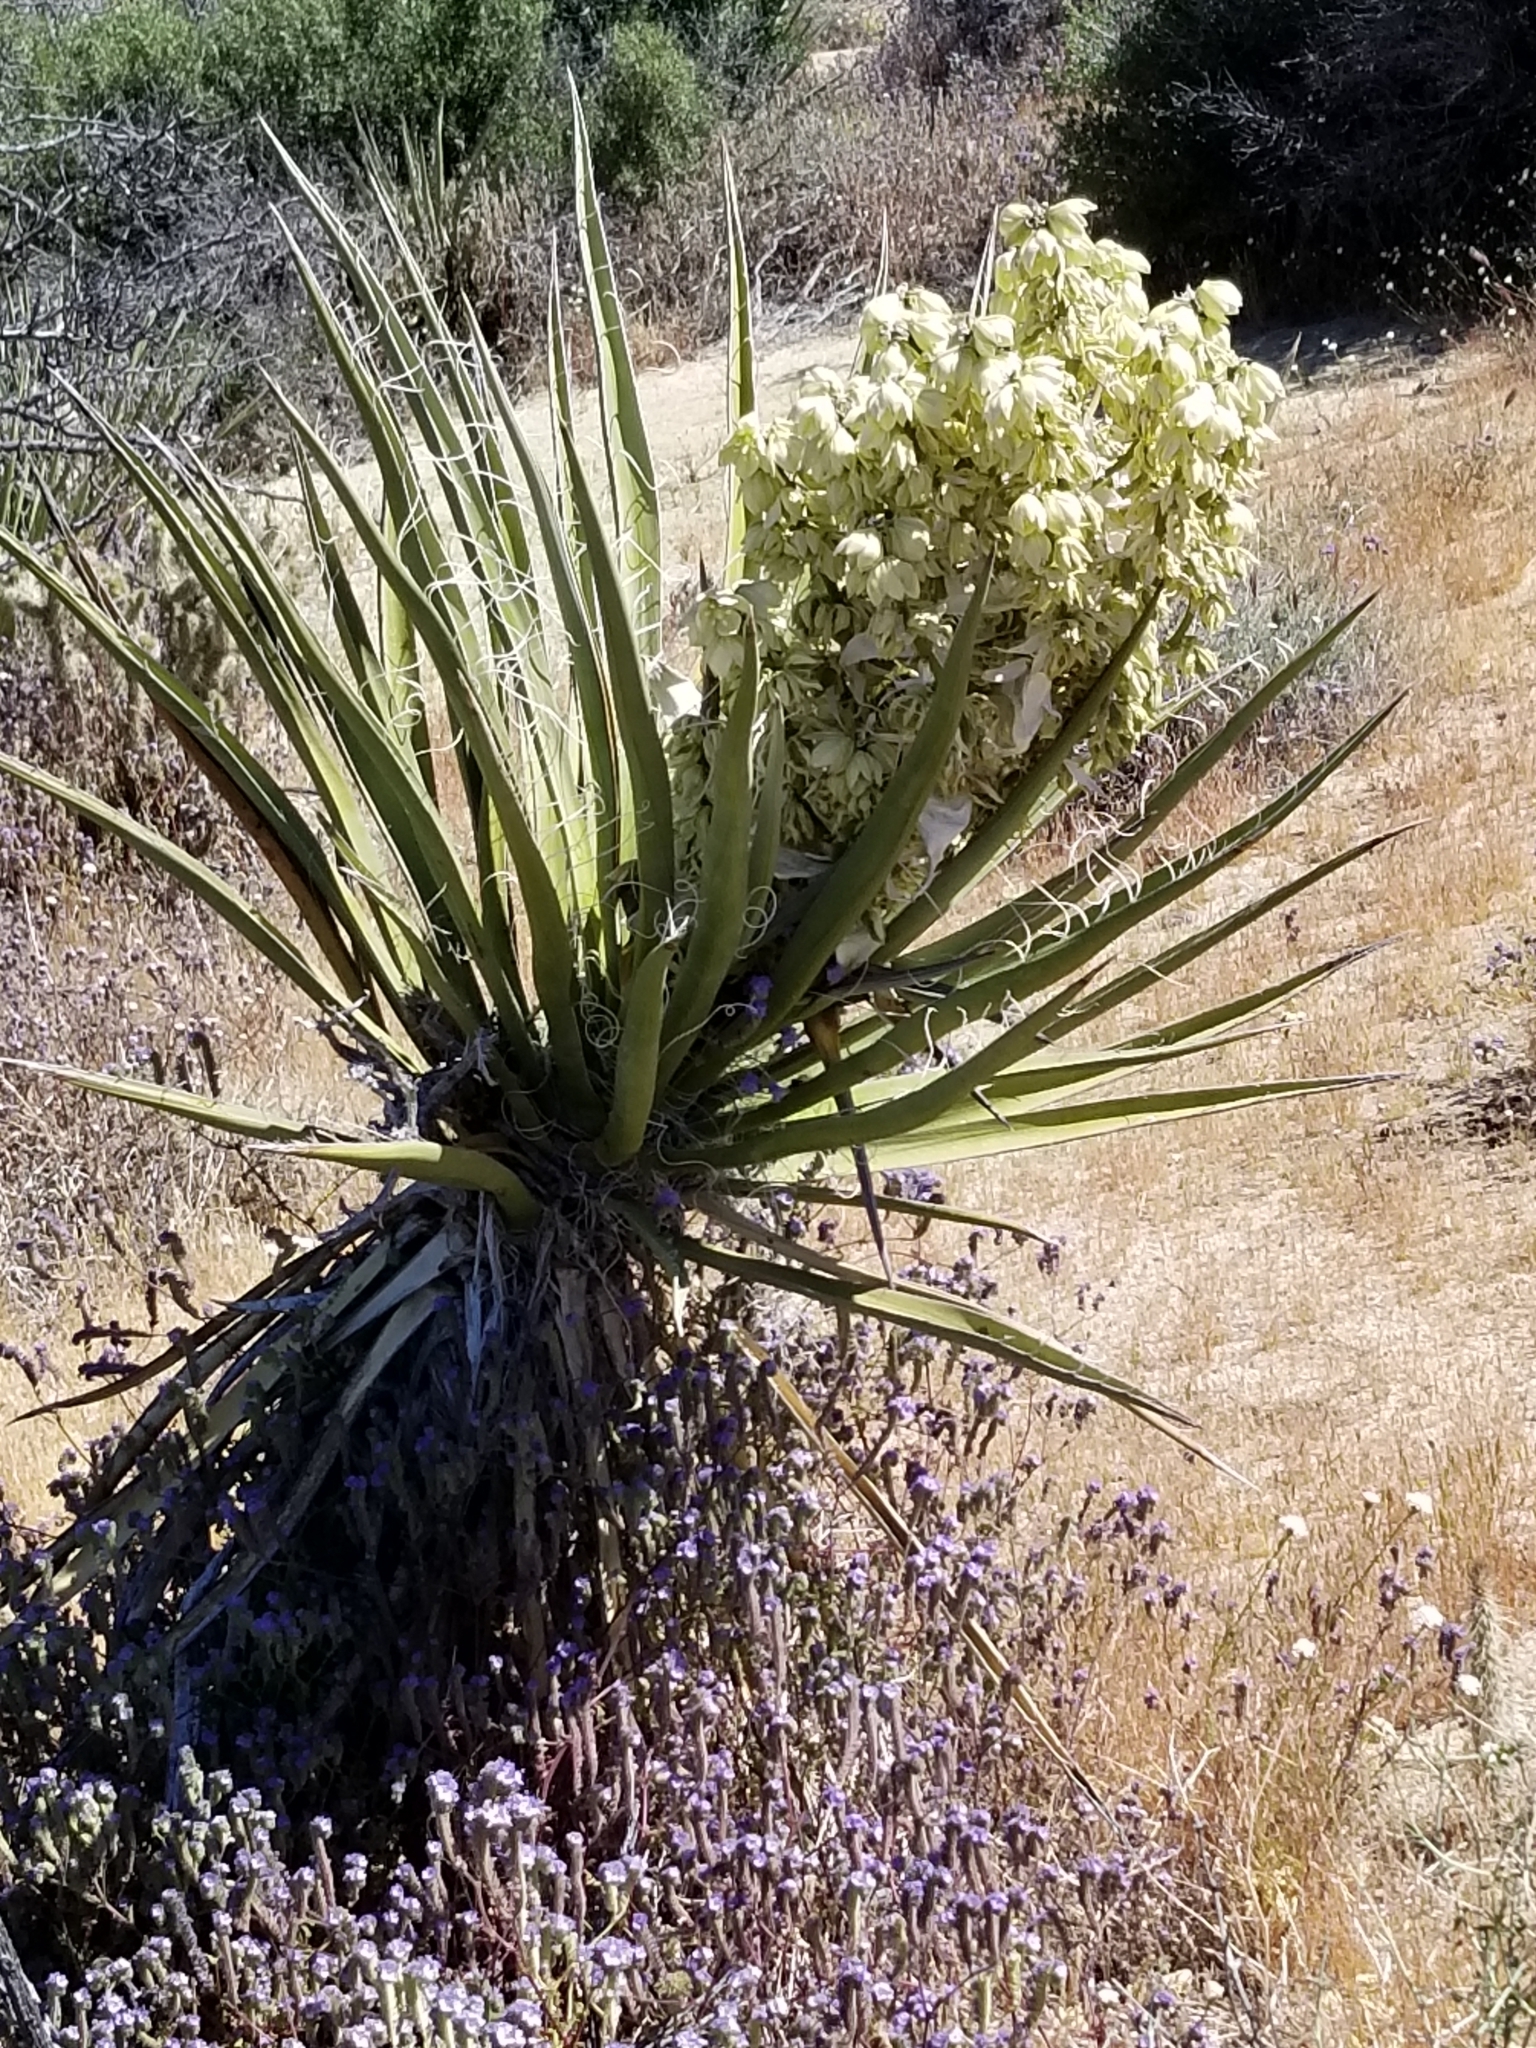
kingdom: Plantae
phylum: Tracheophyta
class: Liliopsida
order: Asparagales
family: Asparagaceae
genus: Yucca
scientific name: Yucca schidigera
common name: Mojave yucca
